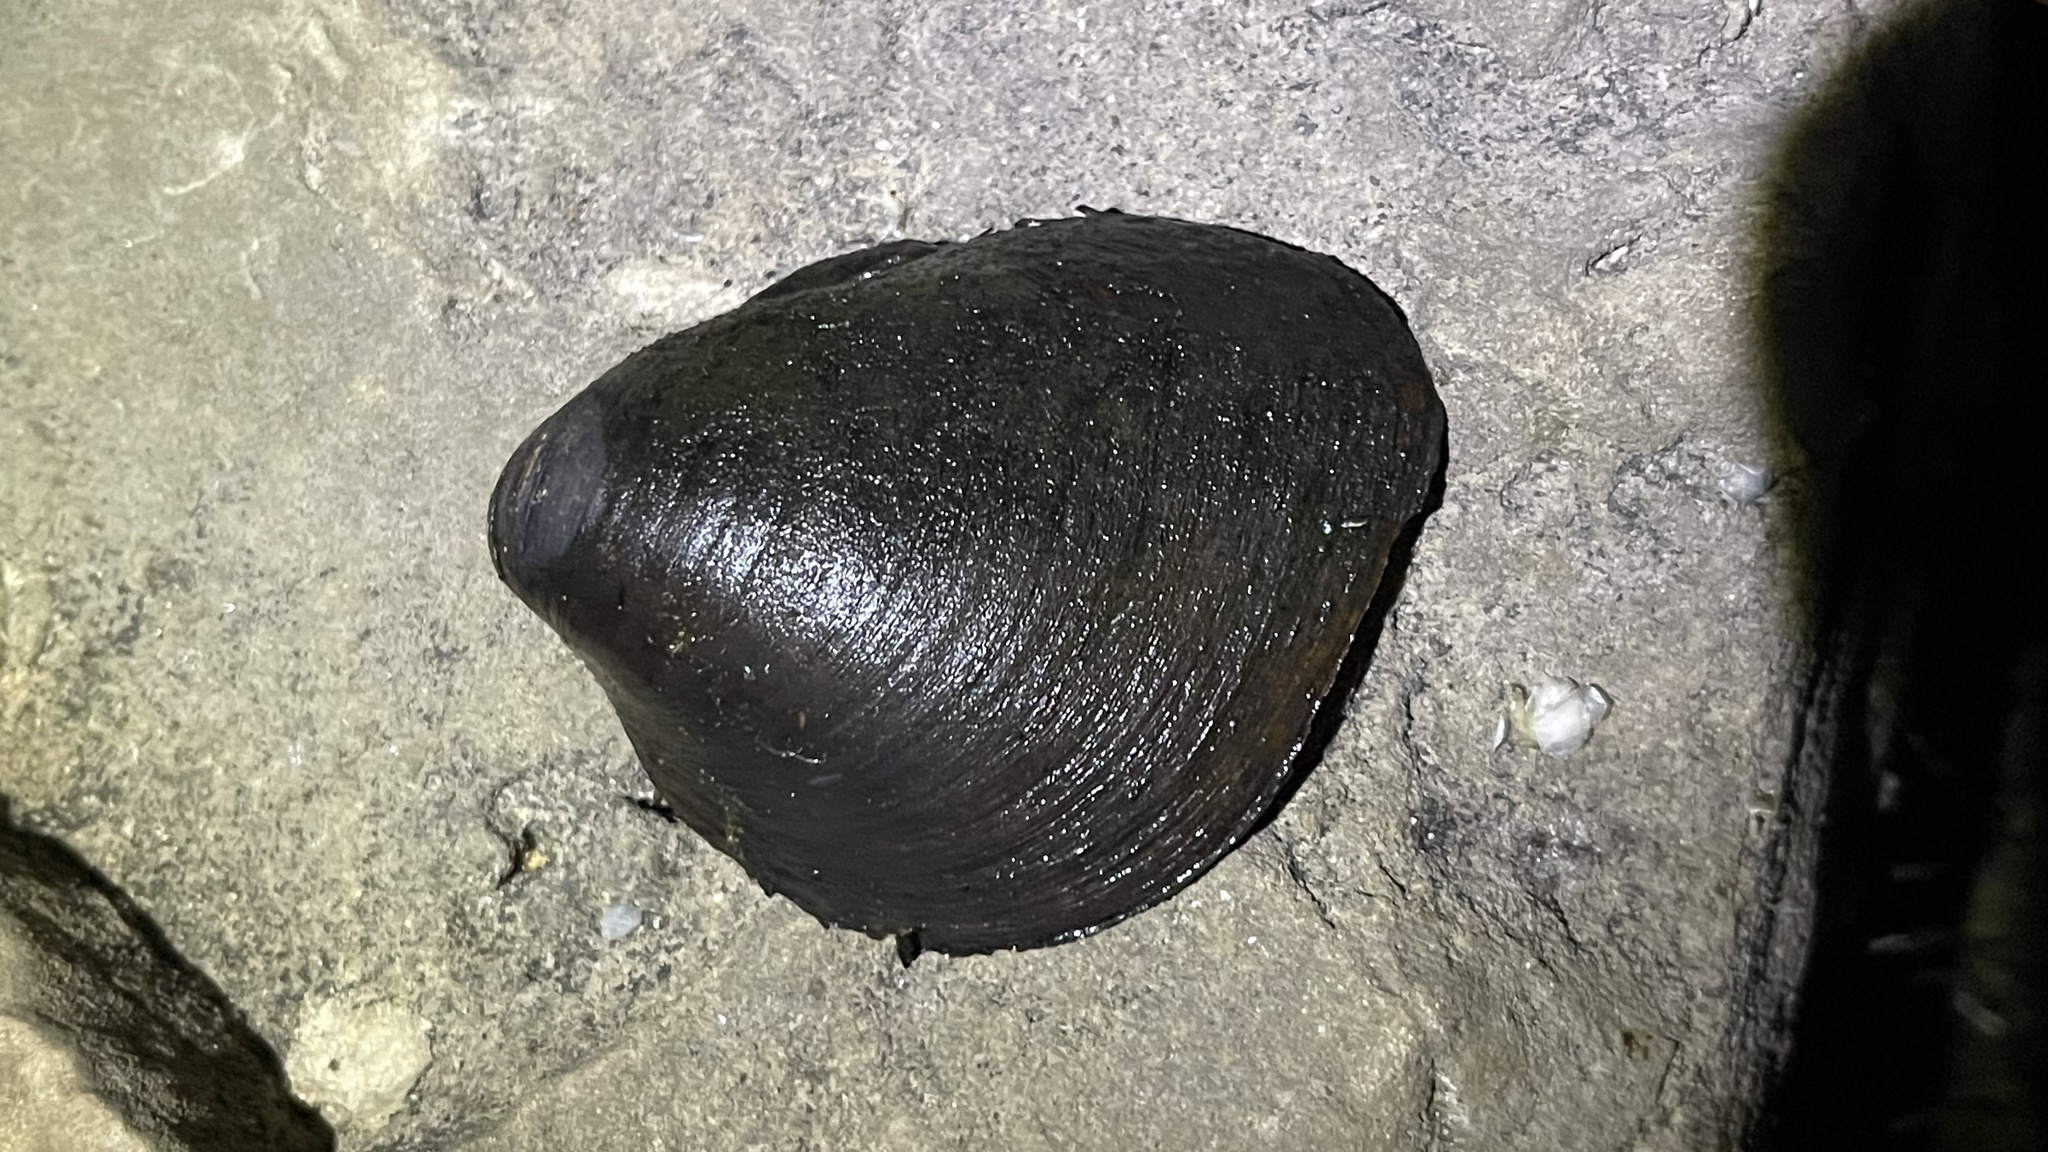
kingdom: Animalia
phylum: Mollusca
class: Bivalvia
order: Unionida
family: Unionidae
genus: Pleurobema
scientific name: Pleurobema sintoxia
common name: Round pigtoe
